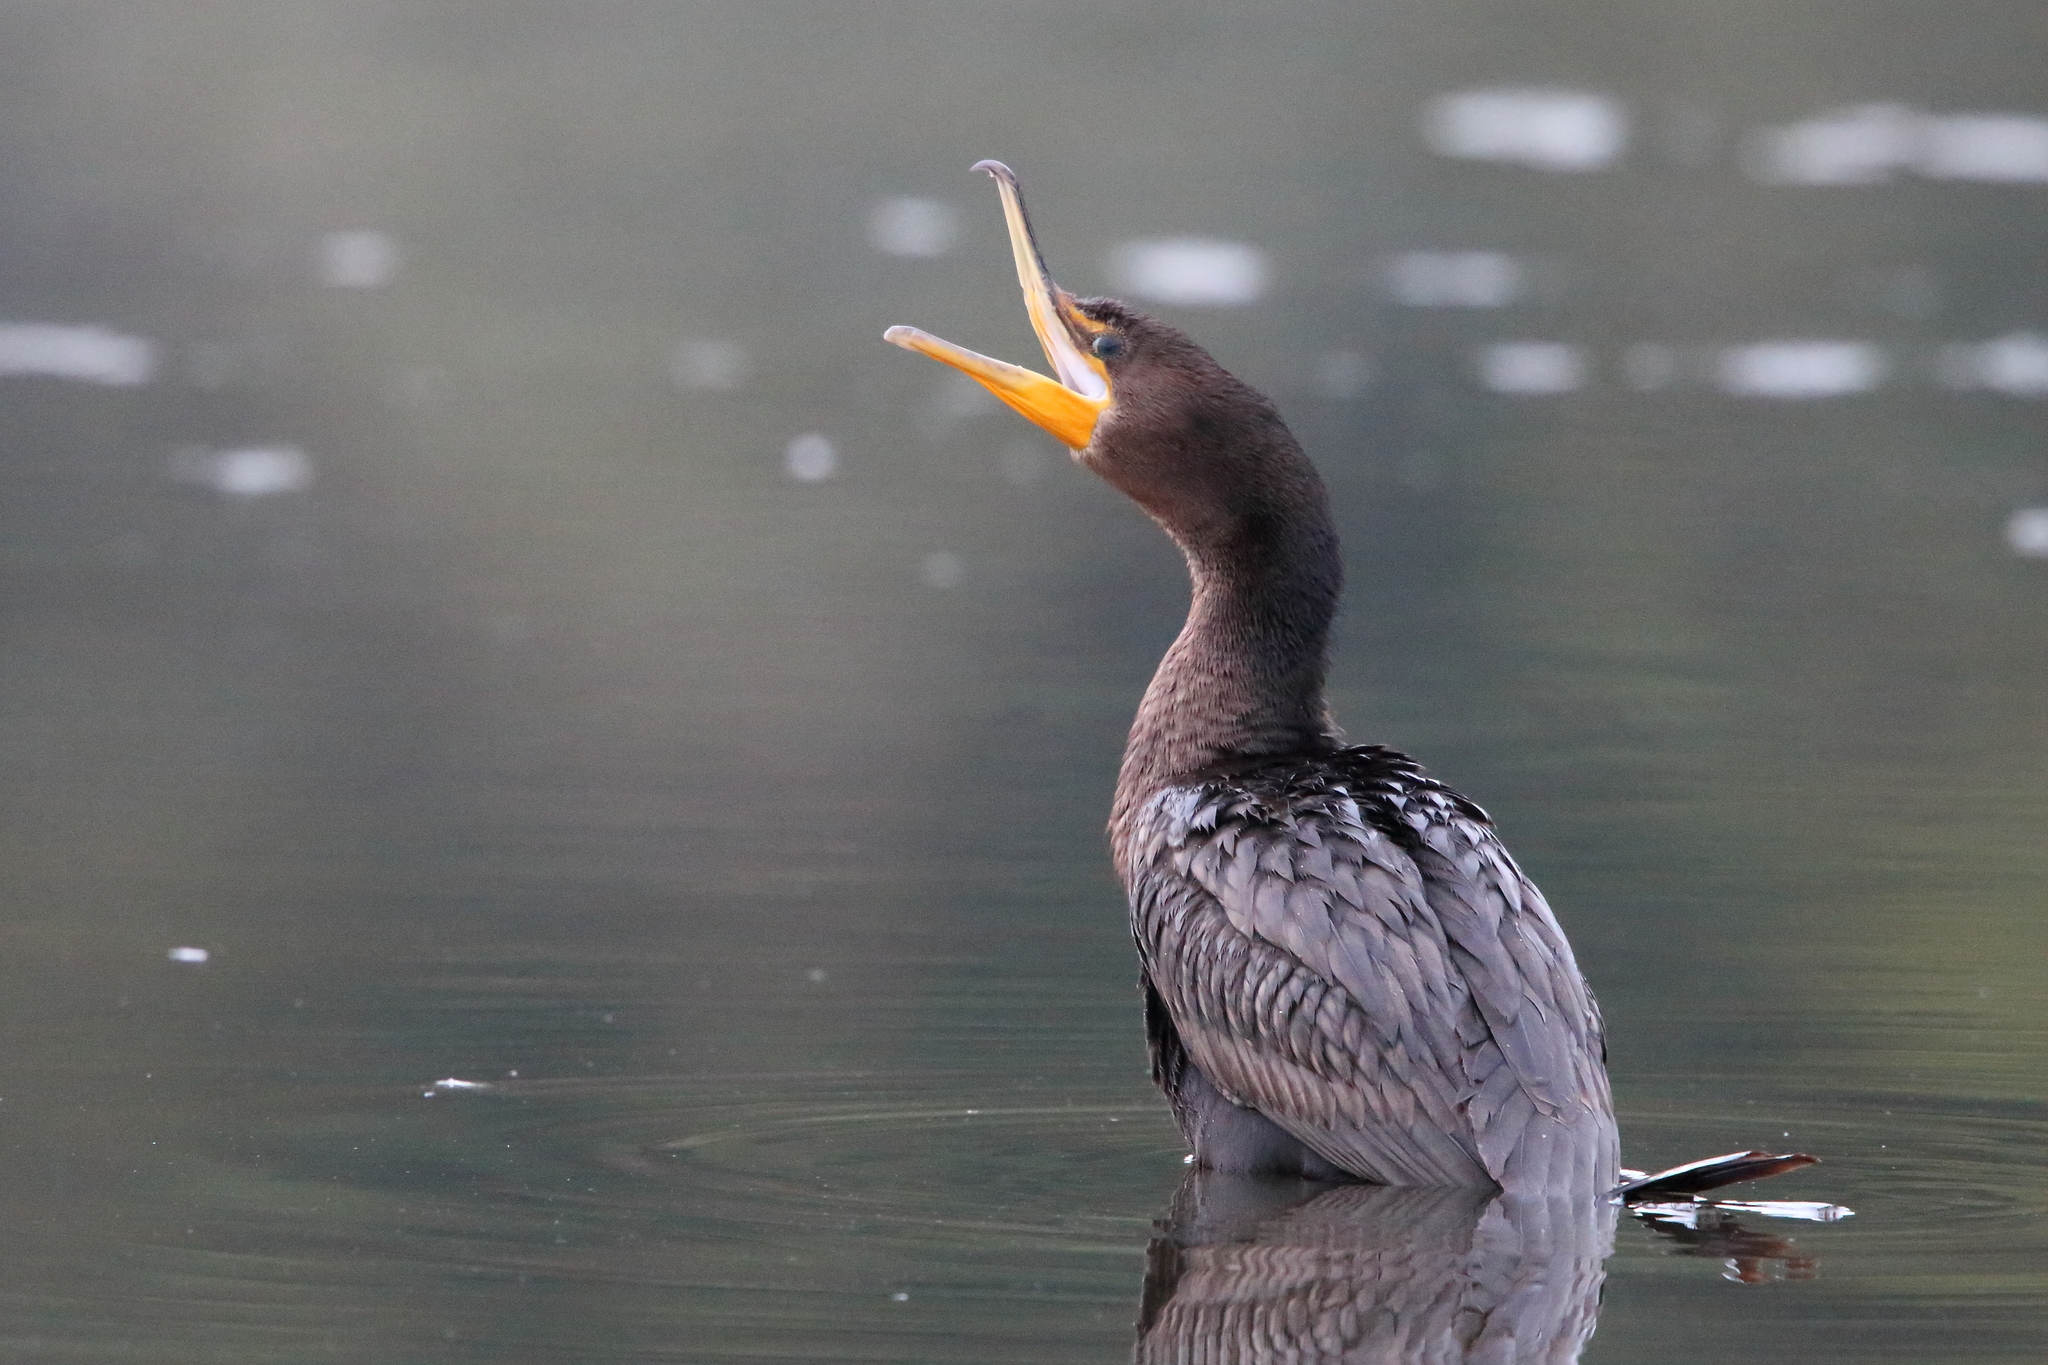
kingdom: Animalia
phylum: Chordata
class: Aves
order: Suliformes
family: Phalacrocoracidae
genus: Phalacrocorax
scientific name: Phalacrocorax auritus
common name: Double-crested cormorant
